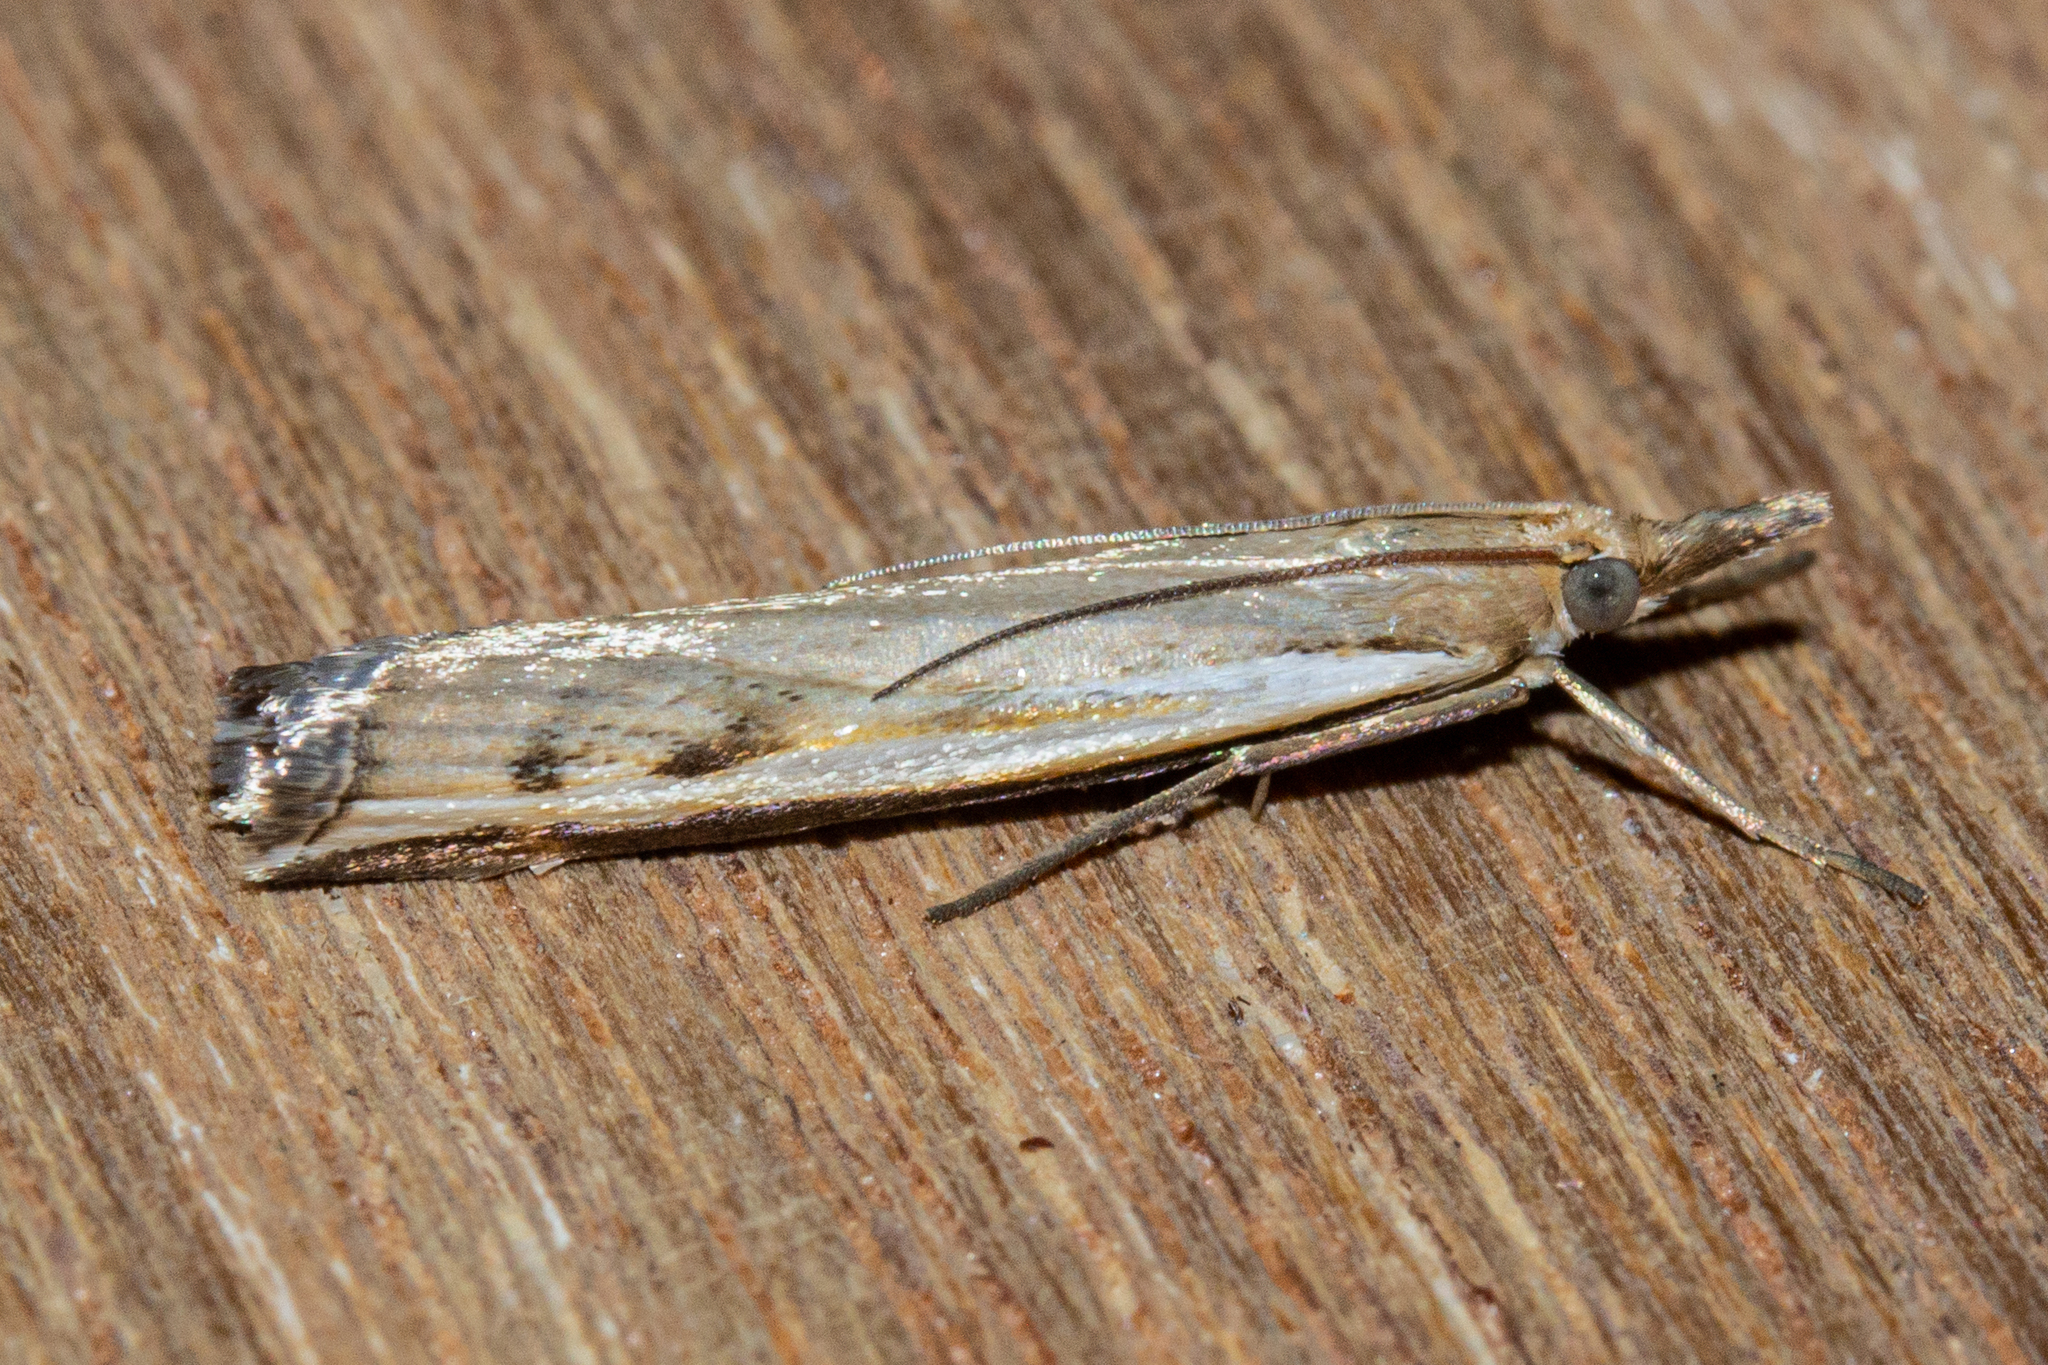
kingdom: Animalia
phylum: Arthropoda
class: Insecta
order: Lepidoptera
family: Crambidae
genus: Orocrambus
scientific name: Orocrambus flexuosellus
